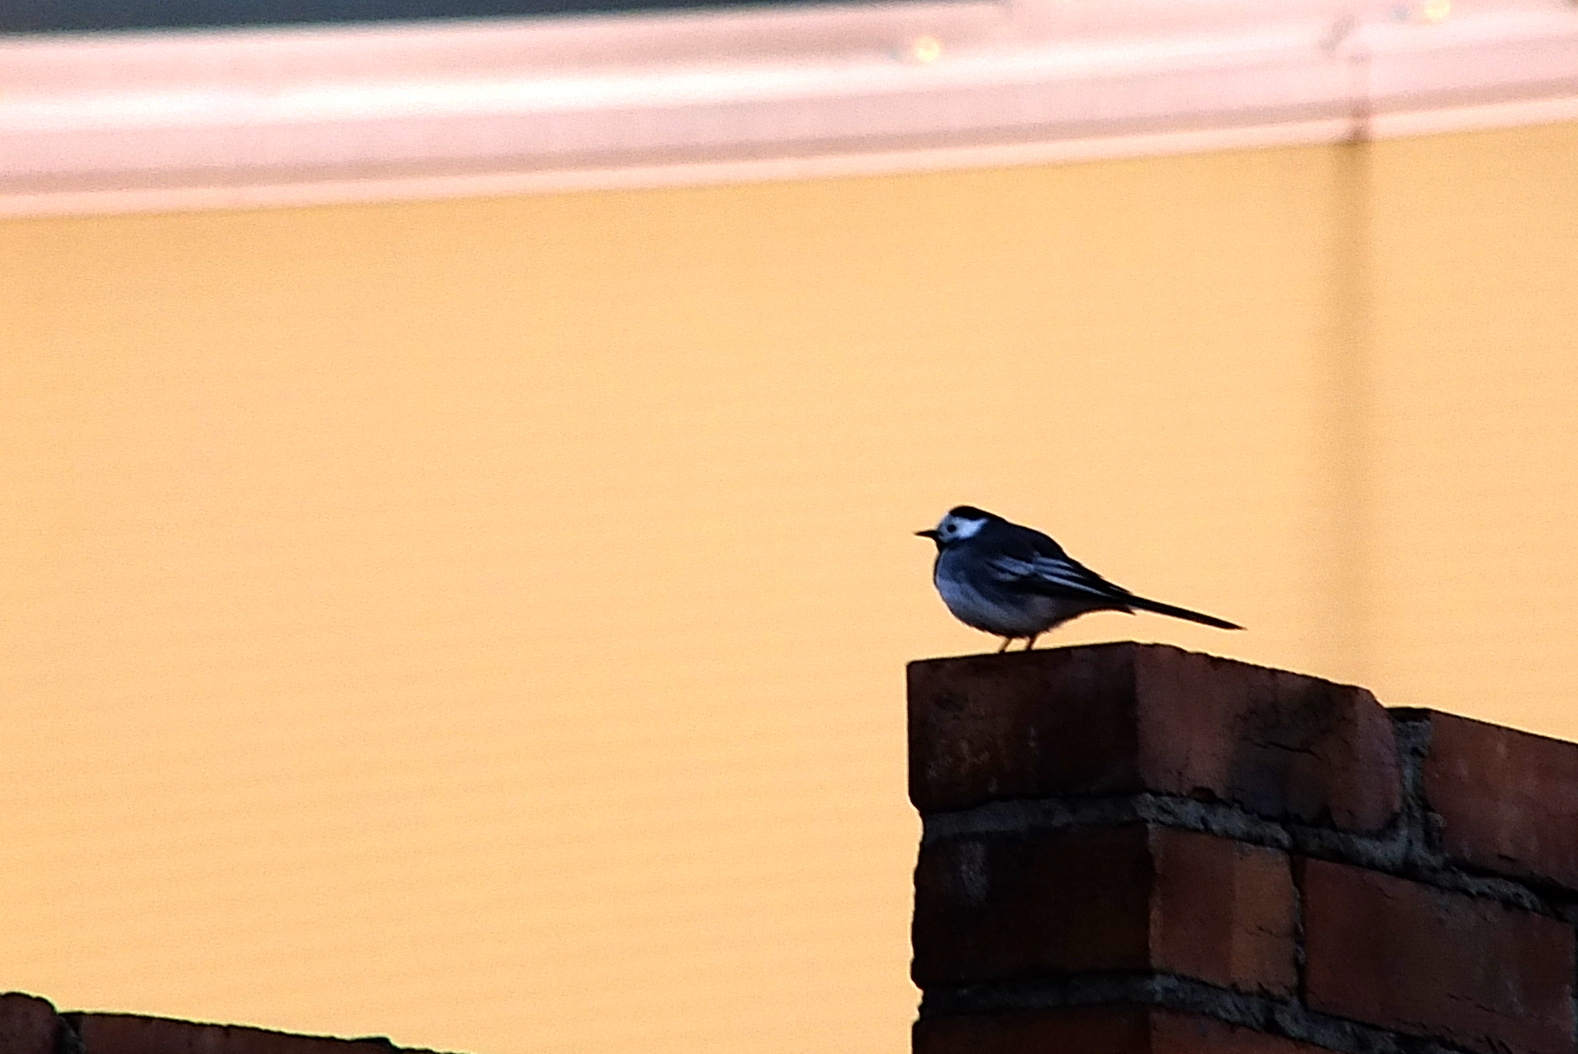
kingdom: Animalia
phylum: Chordata
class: Aves
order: Passeriformes
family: Motacillidae
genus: Motacilla
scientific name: Motacilla alba
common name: White wagtail
